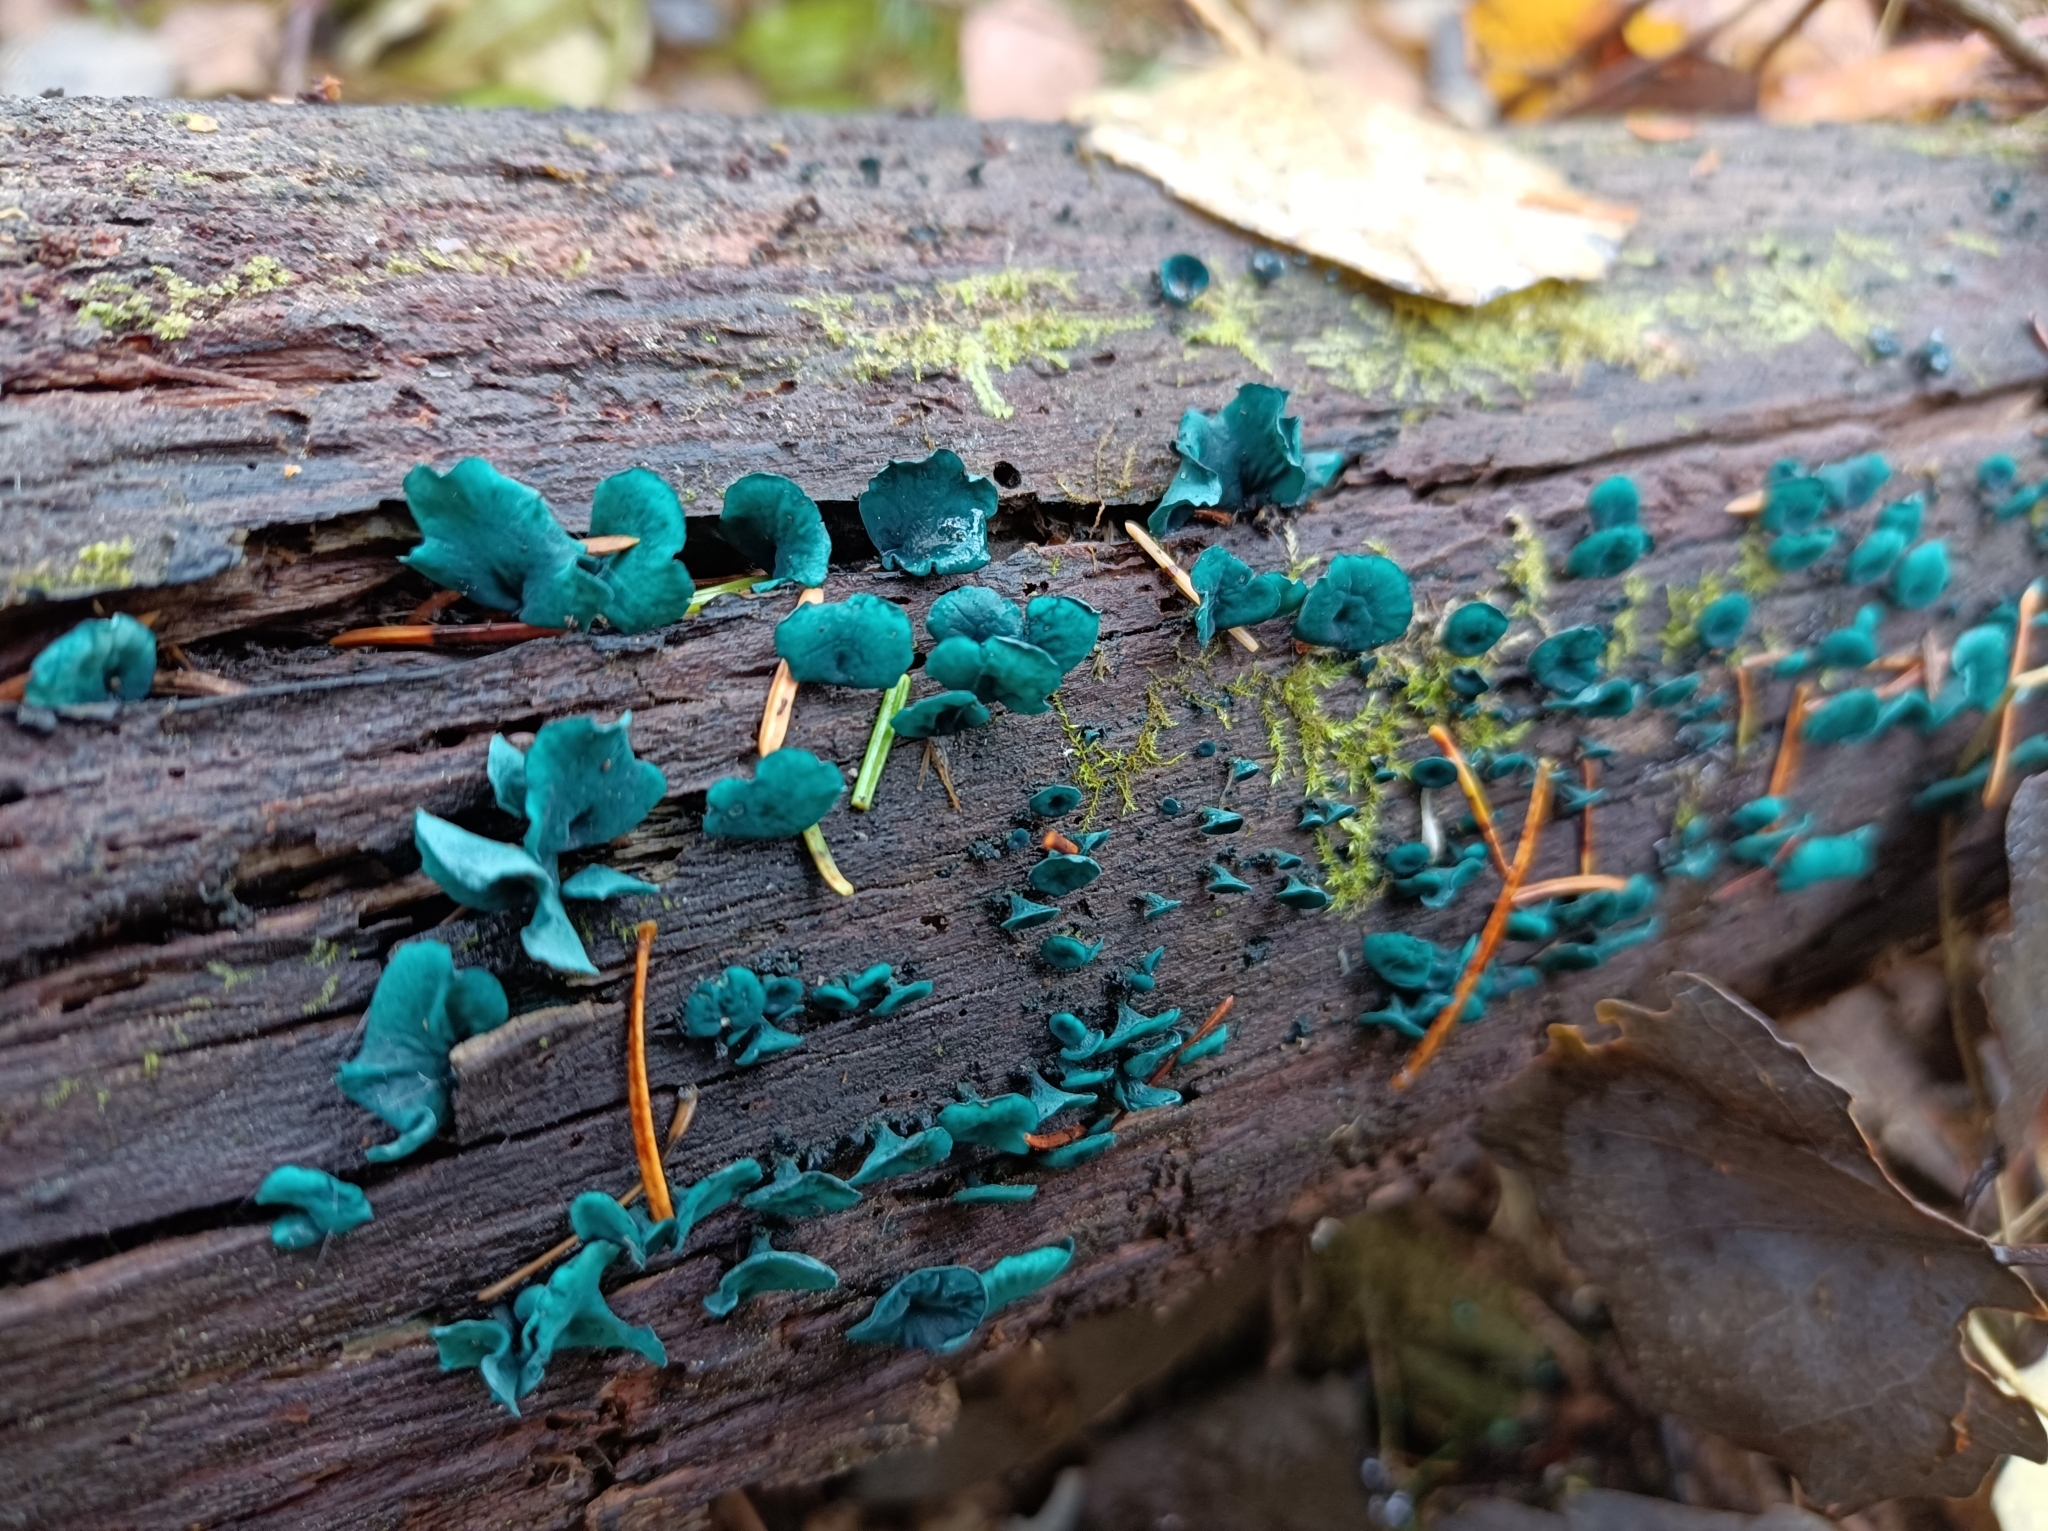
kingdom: Fungi
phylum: Ascomycota
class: Leotiomycetes
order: Helotiales
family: Chlorociboriaceae
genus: Chlorociboria
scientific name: Chlorociboria aeruginascens
